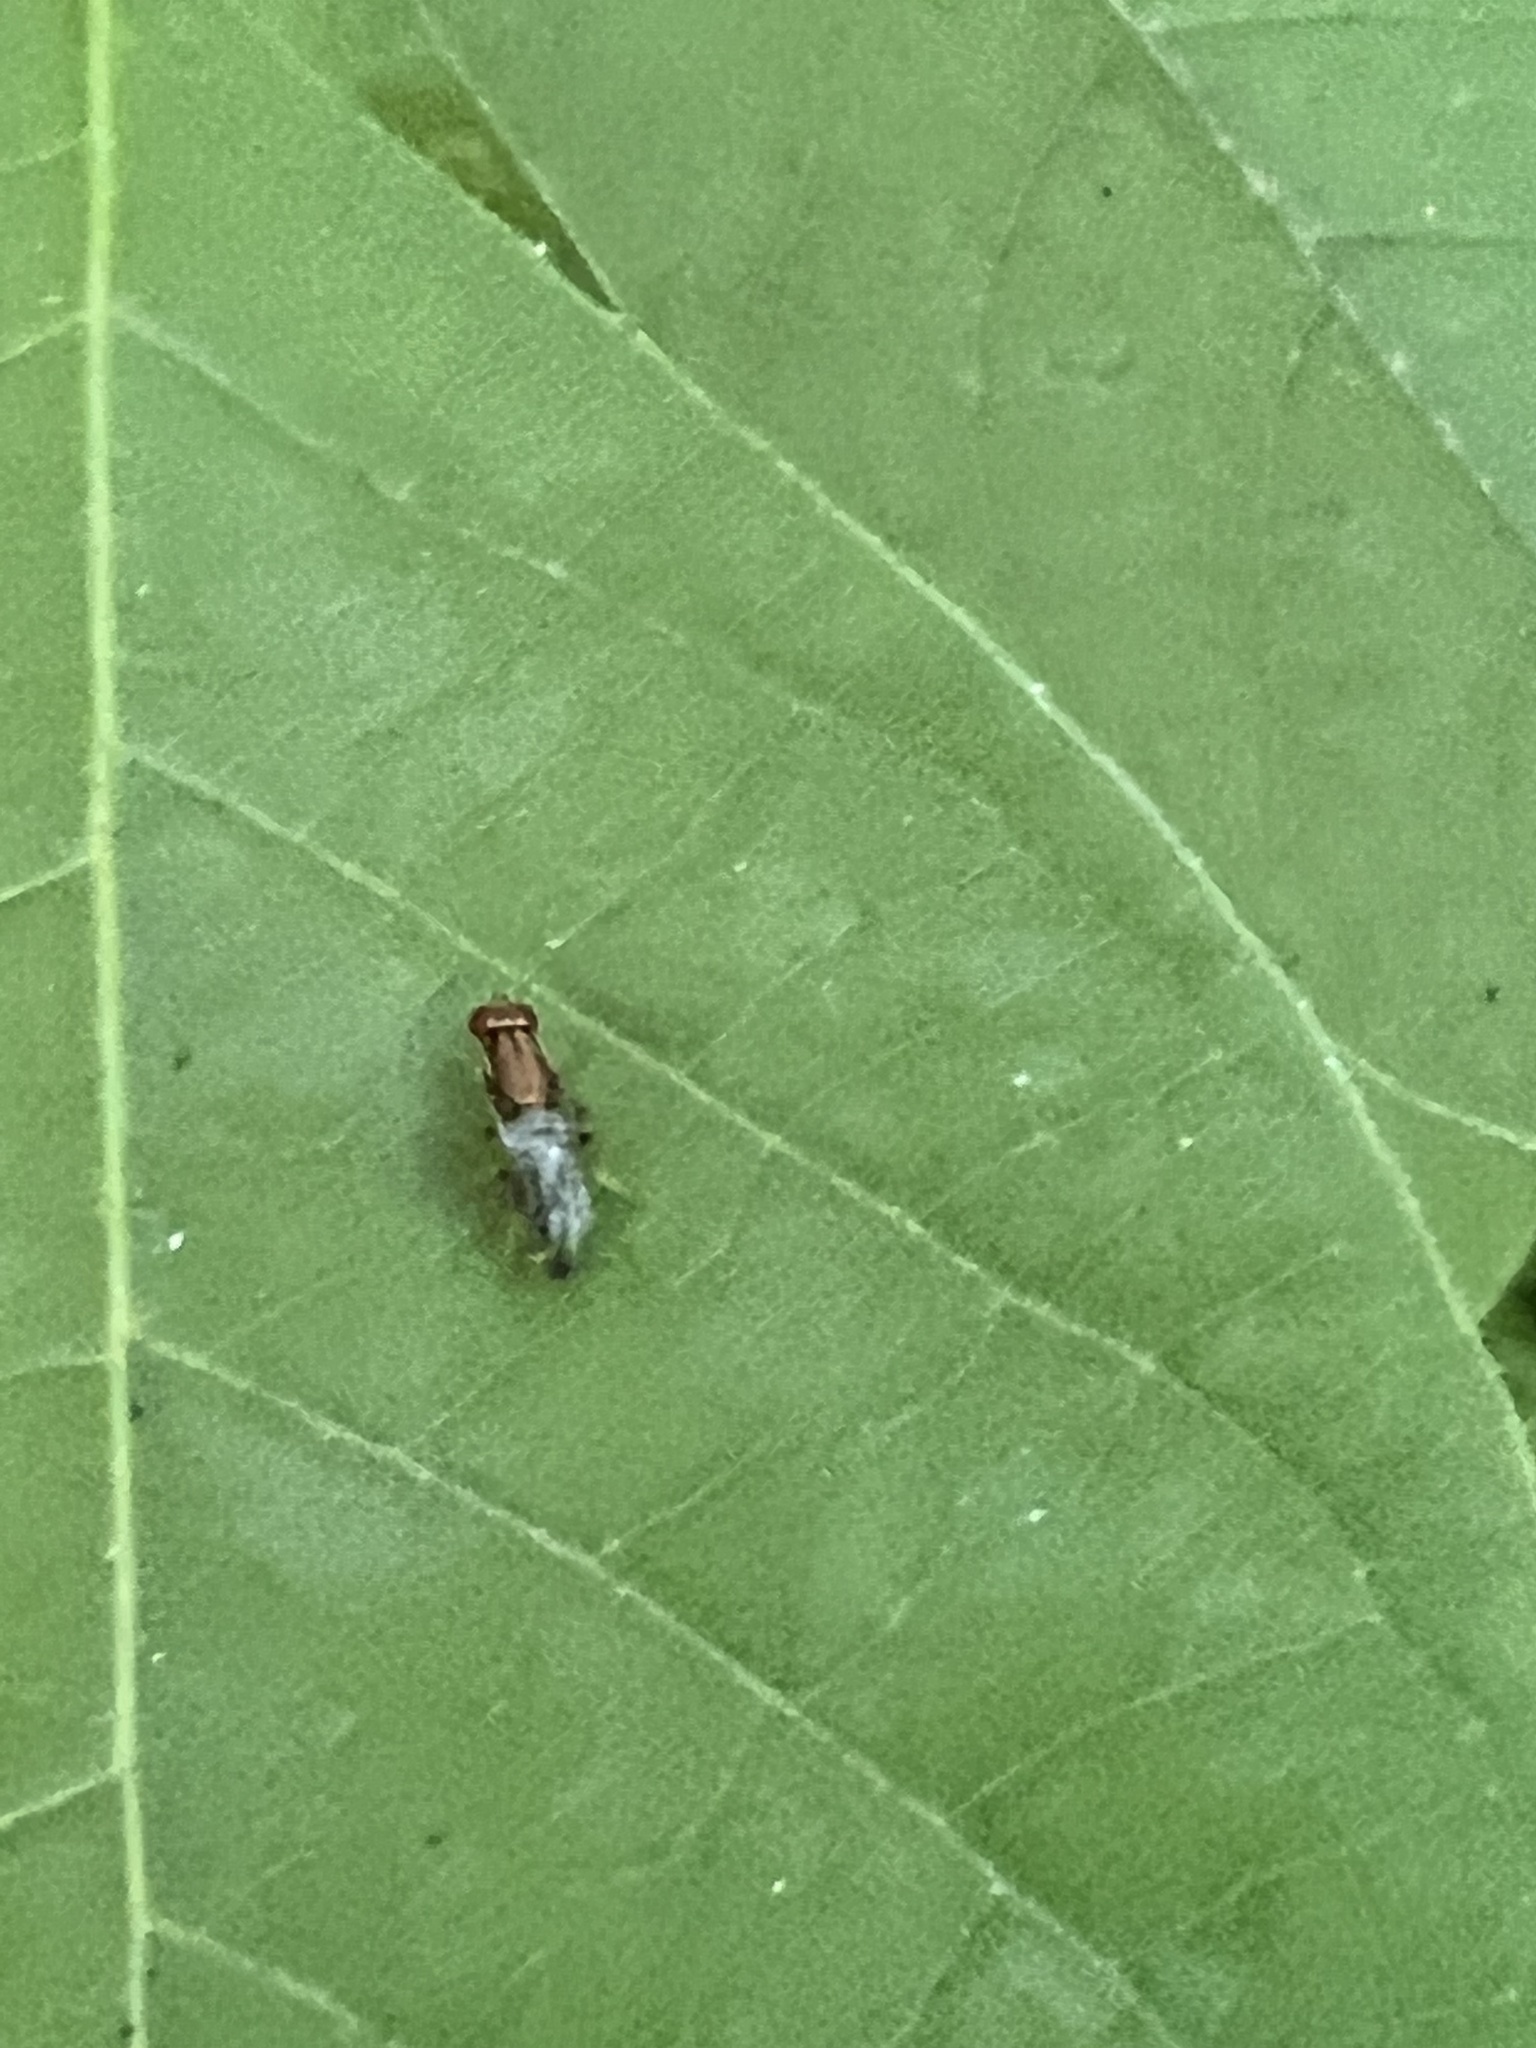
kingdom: Animalia
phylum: Arthropoda
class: Insecta
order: Diptera
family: Psilidae
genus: Chyliza
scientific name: Chyliza apicalis
